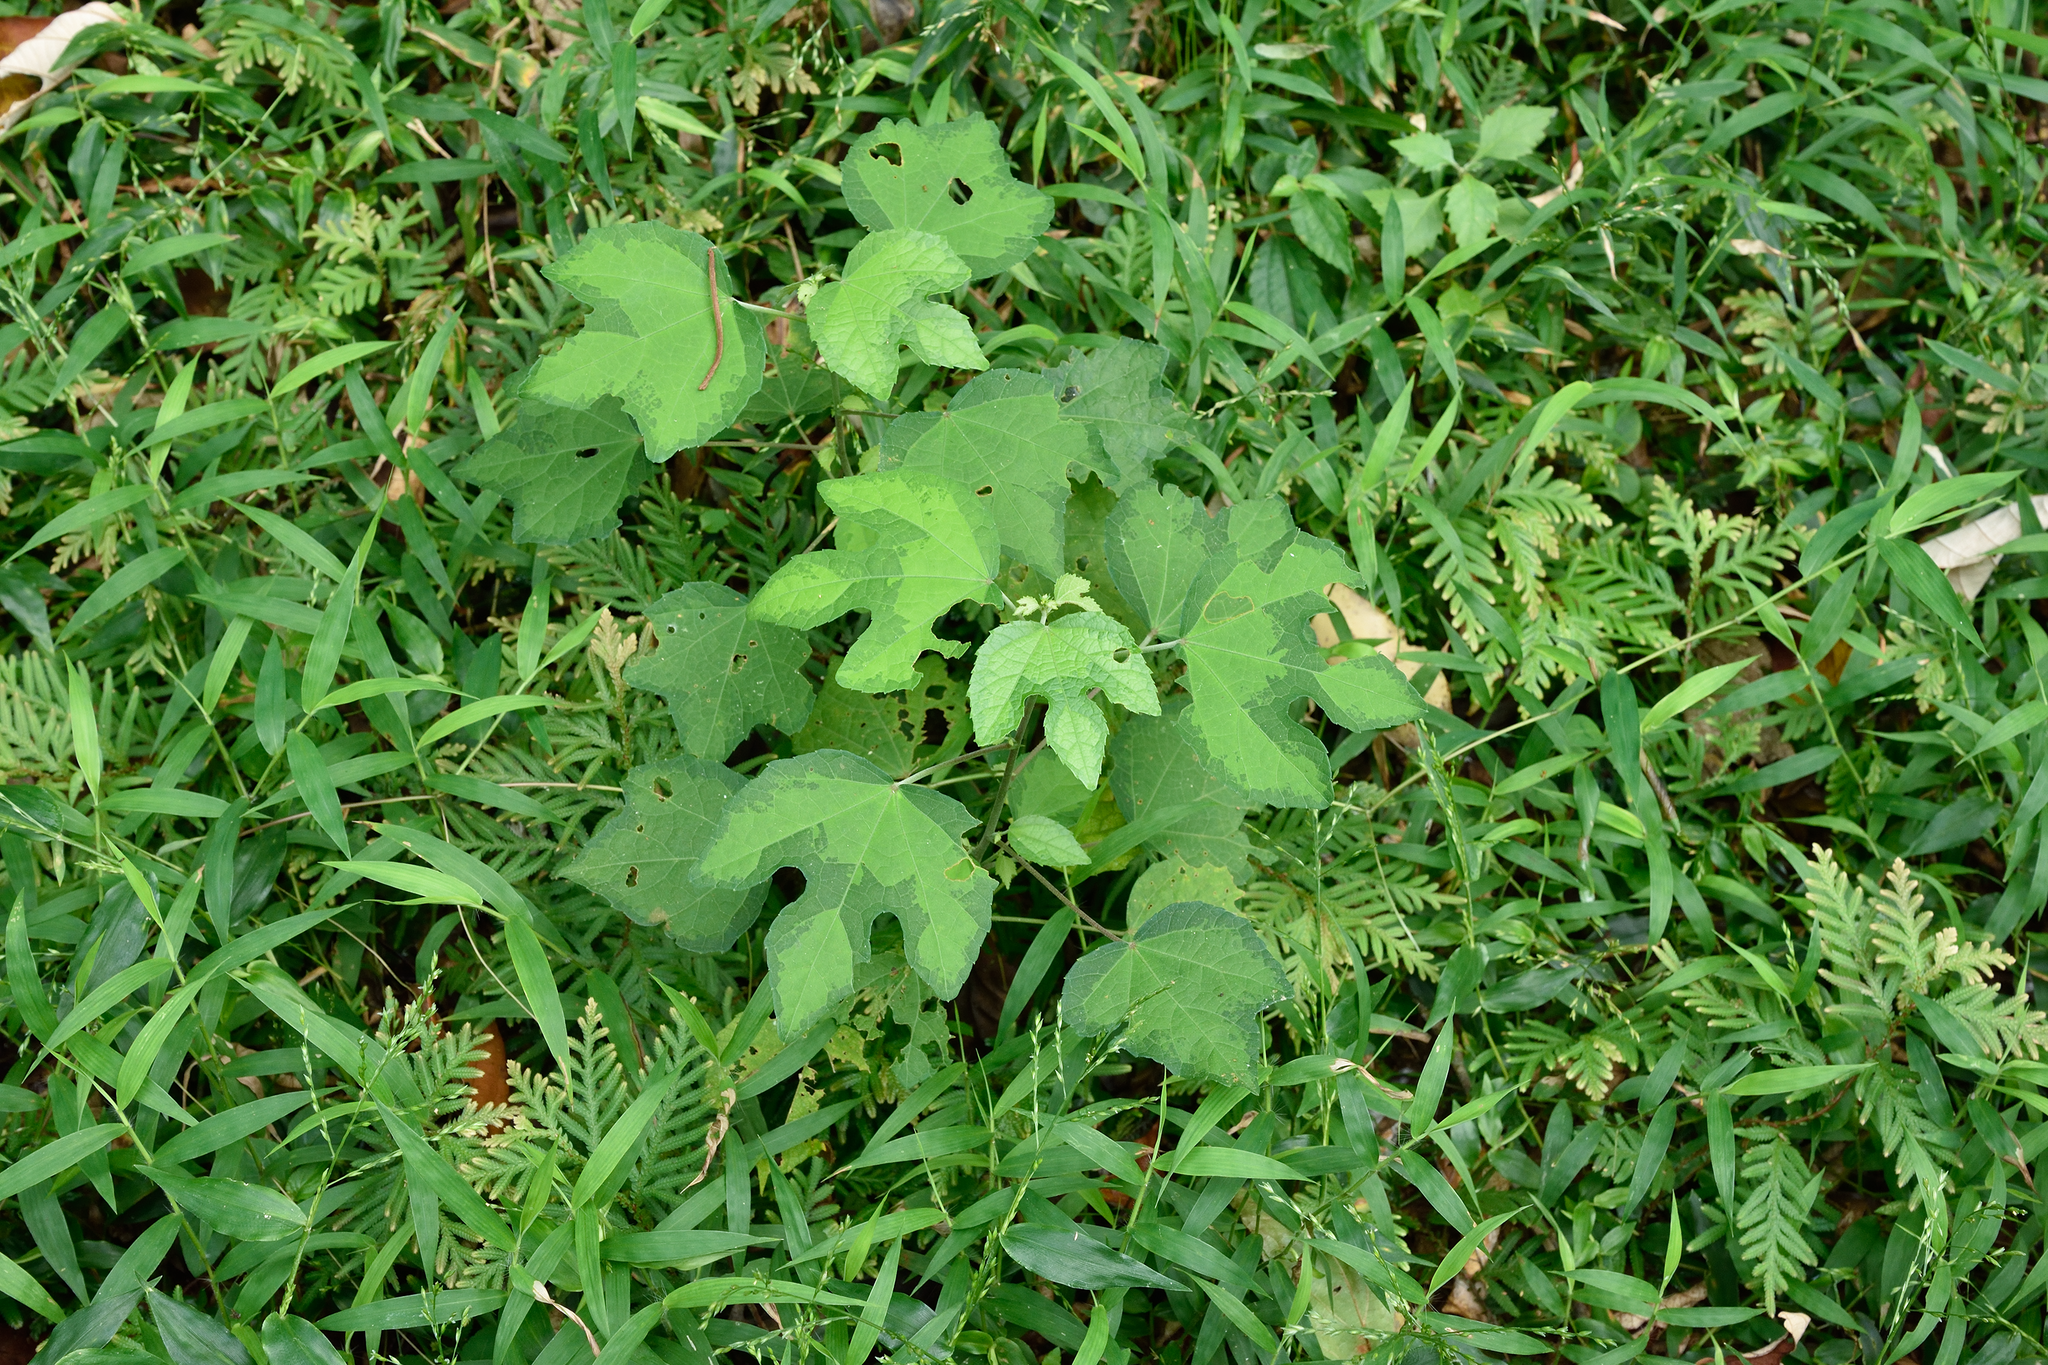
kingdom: Plantae
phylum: Tracheophyta
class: Magnoliopsida
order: Malvales
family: Malvaceae
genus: Urena
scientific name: Urena procumbens
